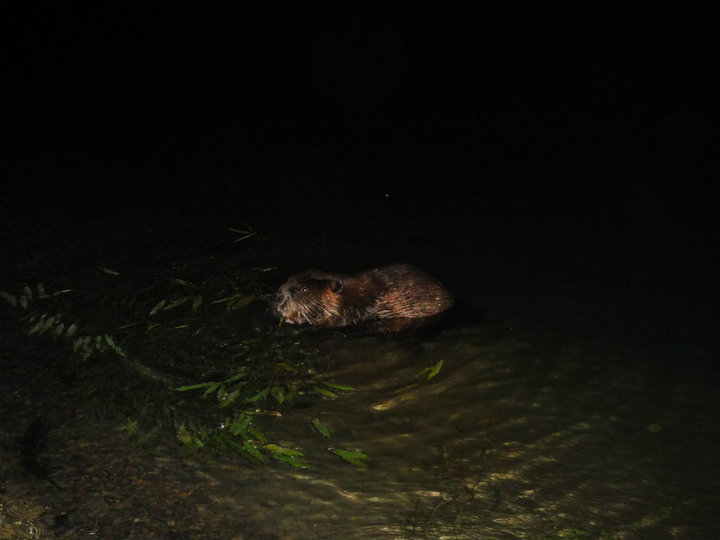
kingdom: Animalia
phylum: Chordata
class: Mammalia
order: Rodentia
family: Castoridae
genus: Castor
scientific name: Castor canadensis
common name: American beaver
